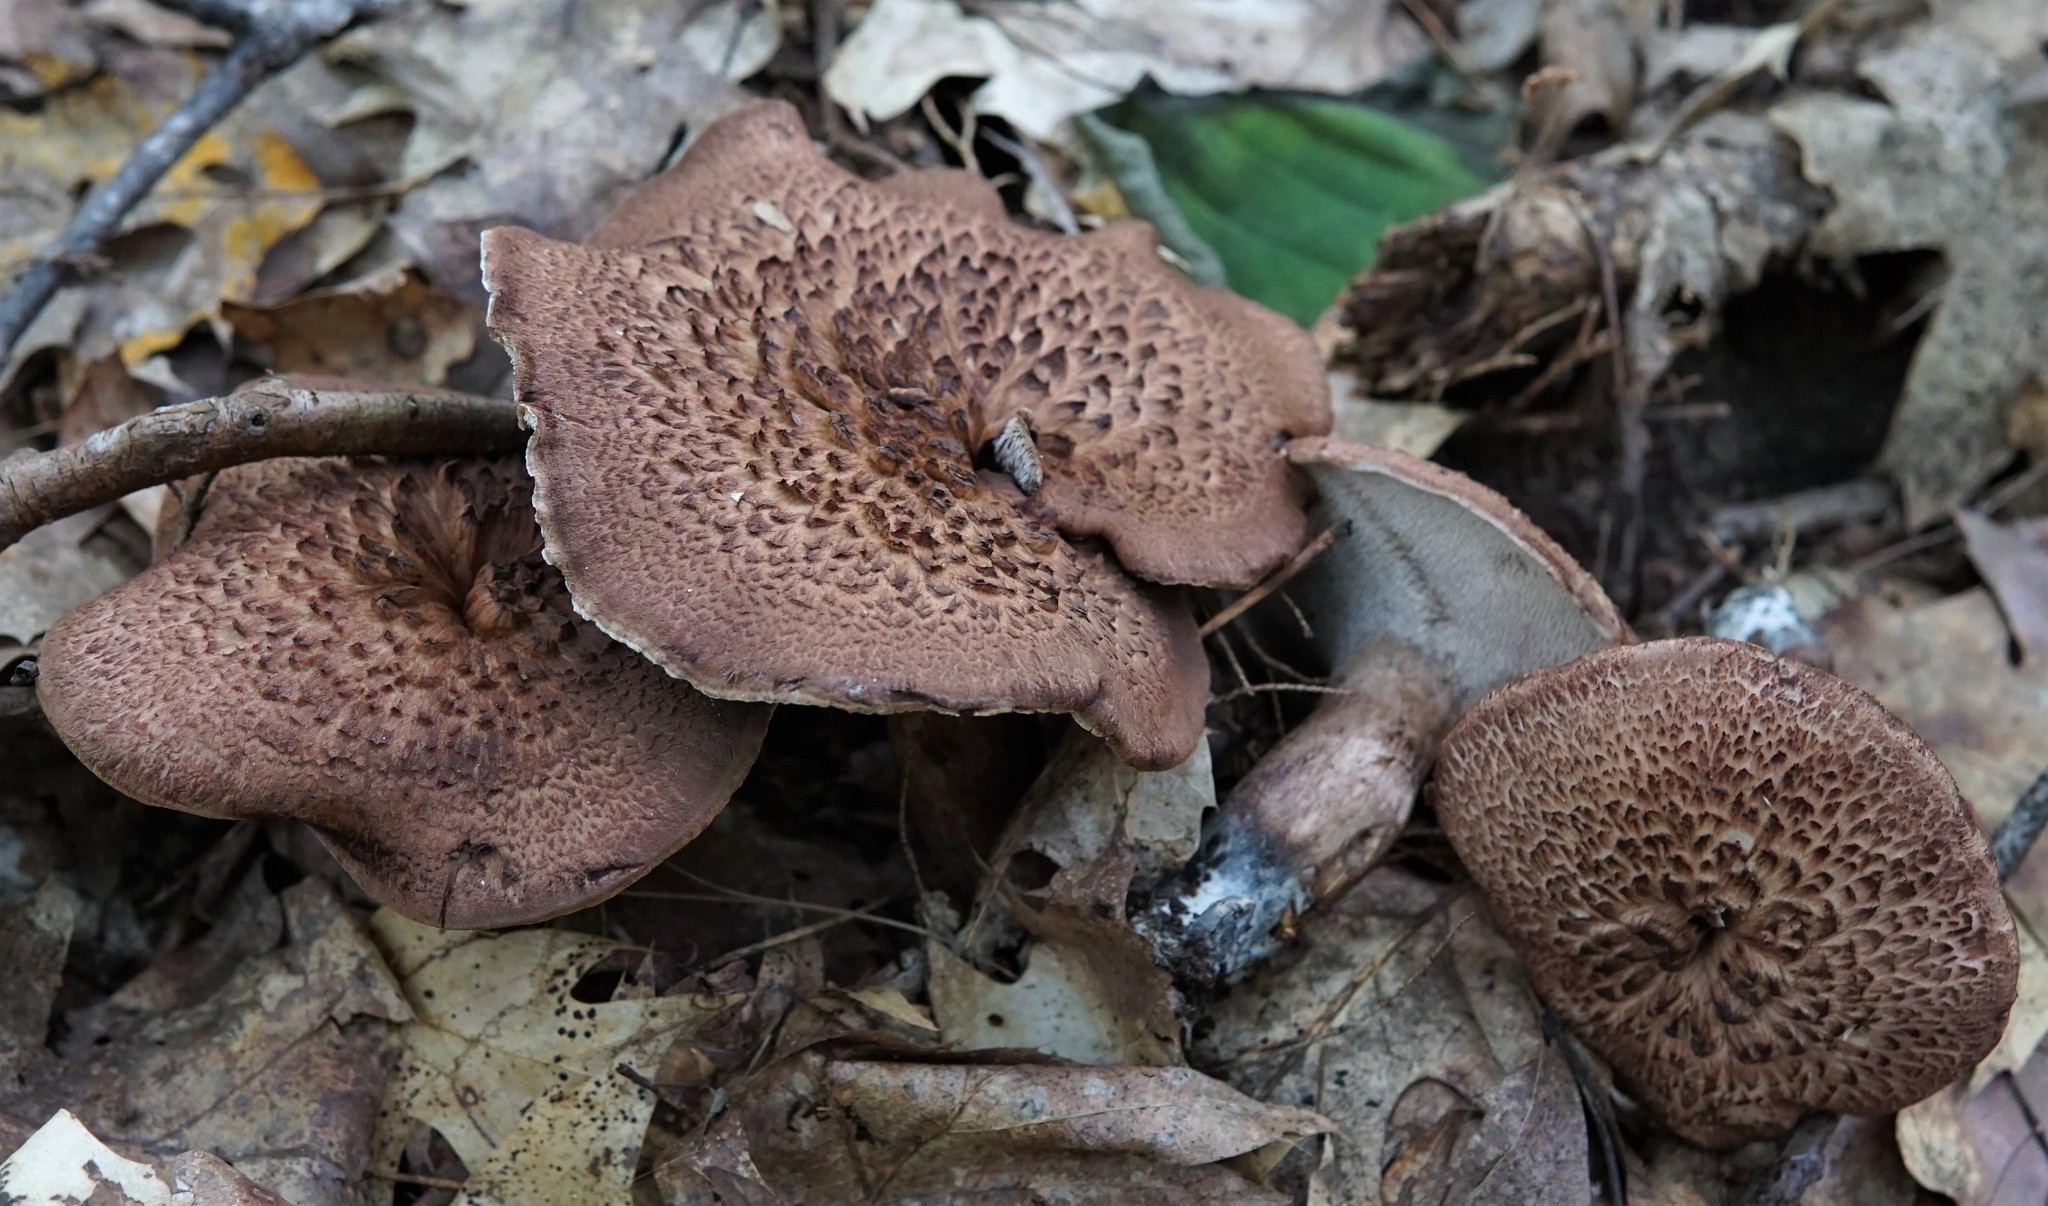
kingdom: Fungi
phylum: Basidiomycota
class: Agaricomycetes
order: Thelephorales
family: Bankeraceae
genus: Sarcodon
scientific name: Sarcodon imbricatus
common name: Shingled hedgehog
